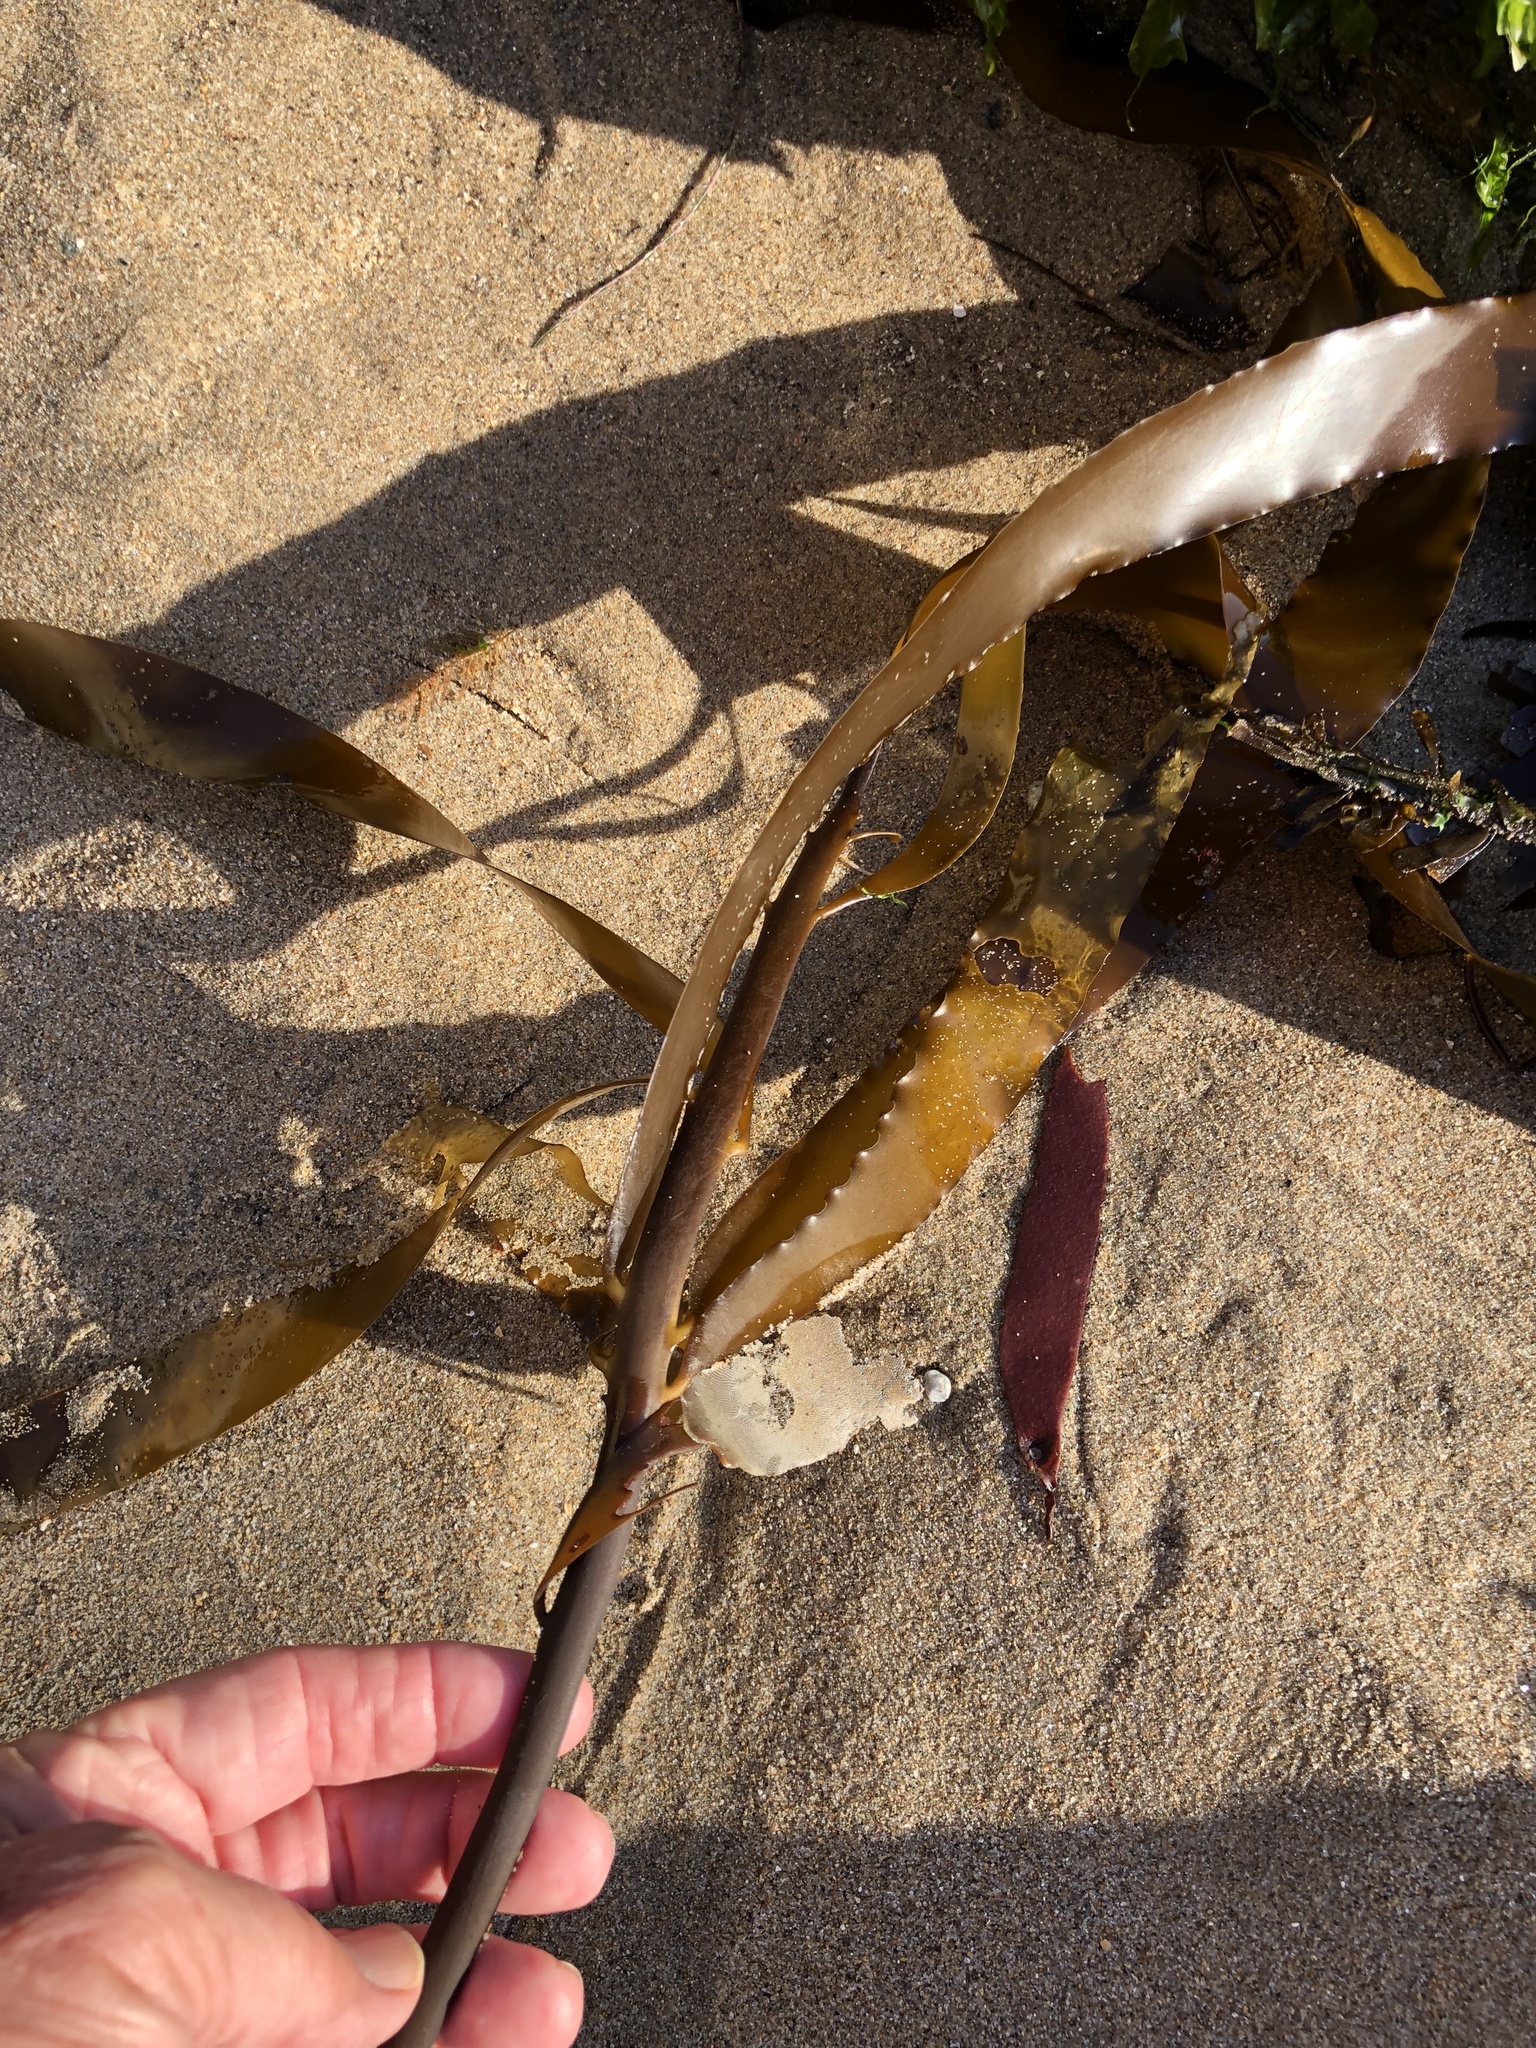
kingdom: Chromista
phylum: Ochrophyta
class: Phaeophyceae
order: Laminariales
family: Alariaceae
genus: Pterygophora
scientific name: Pterygophora californica
